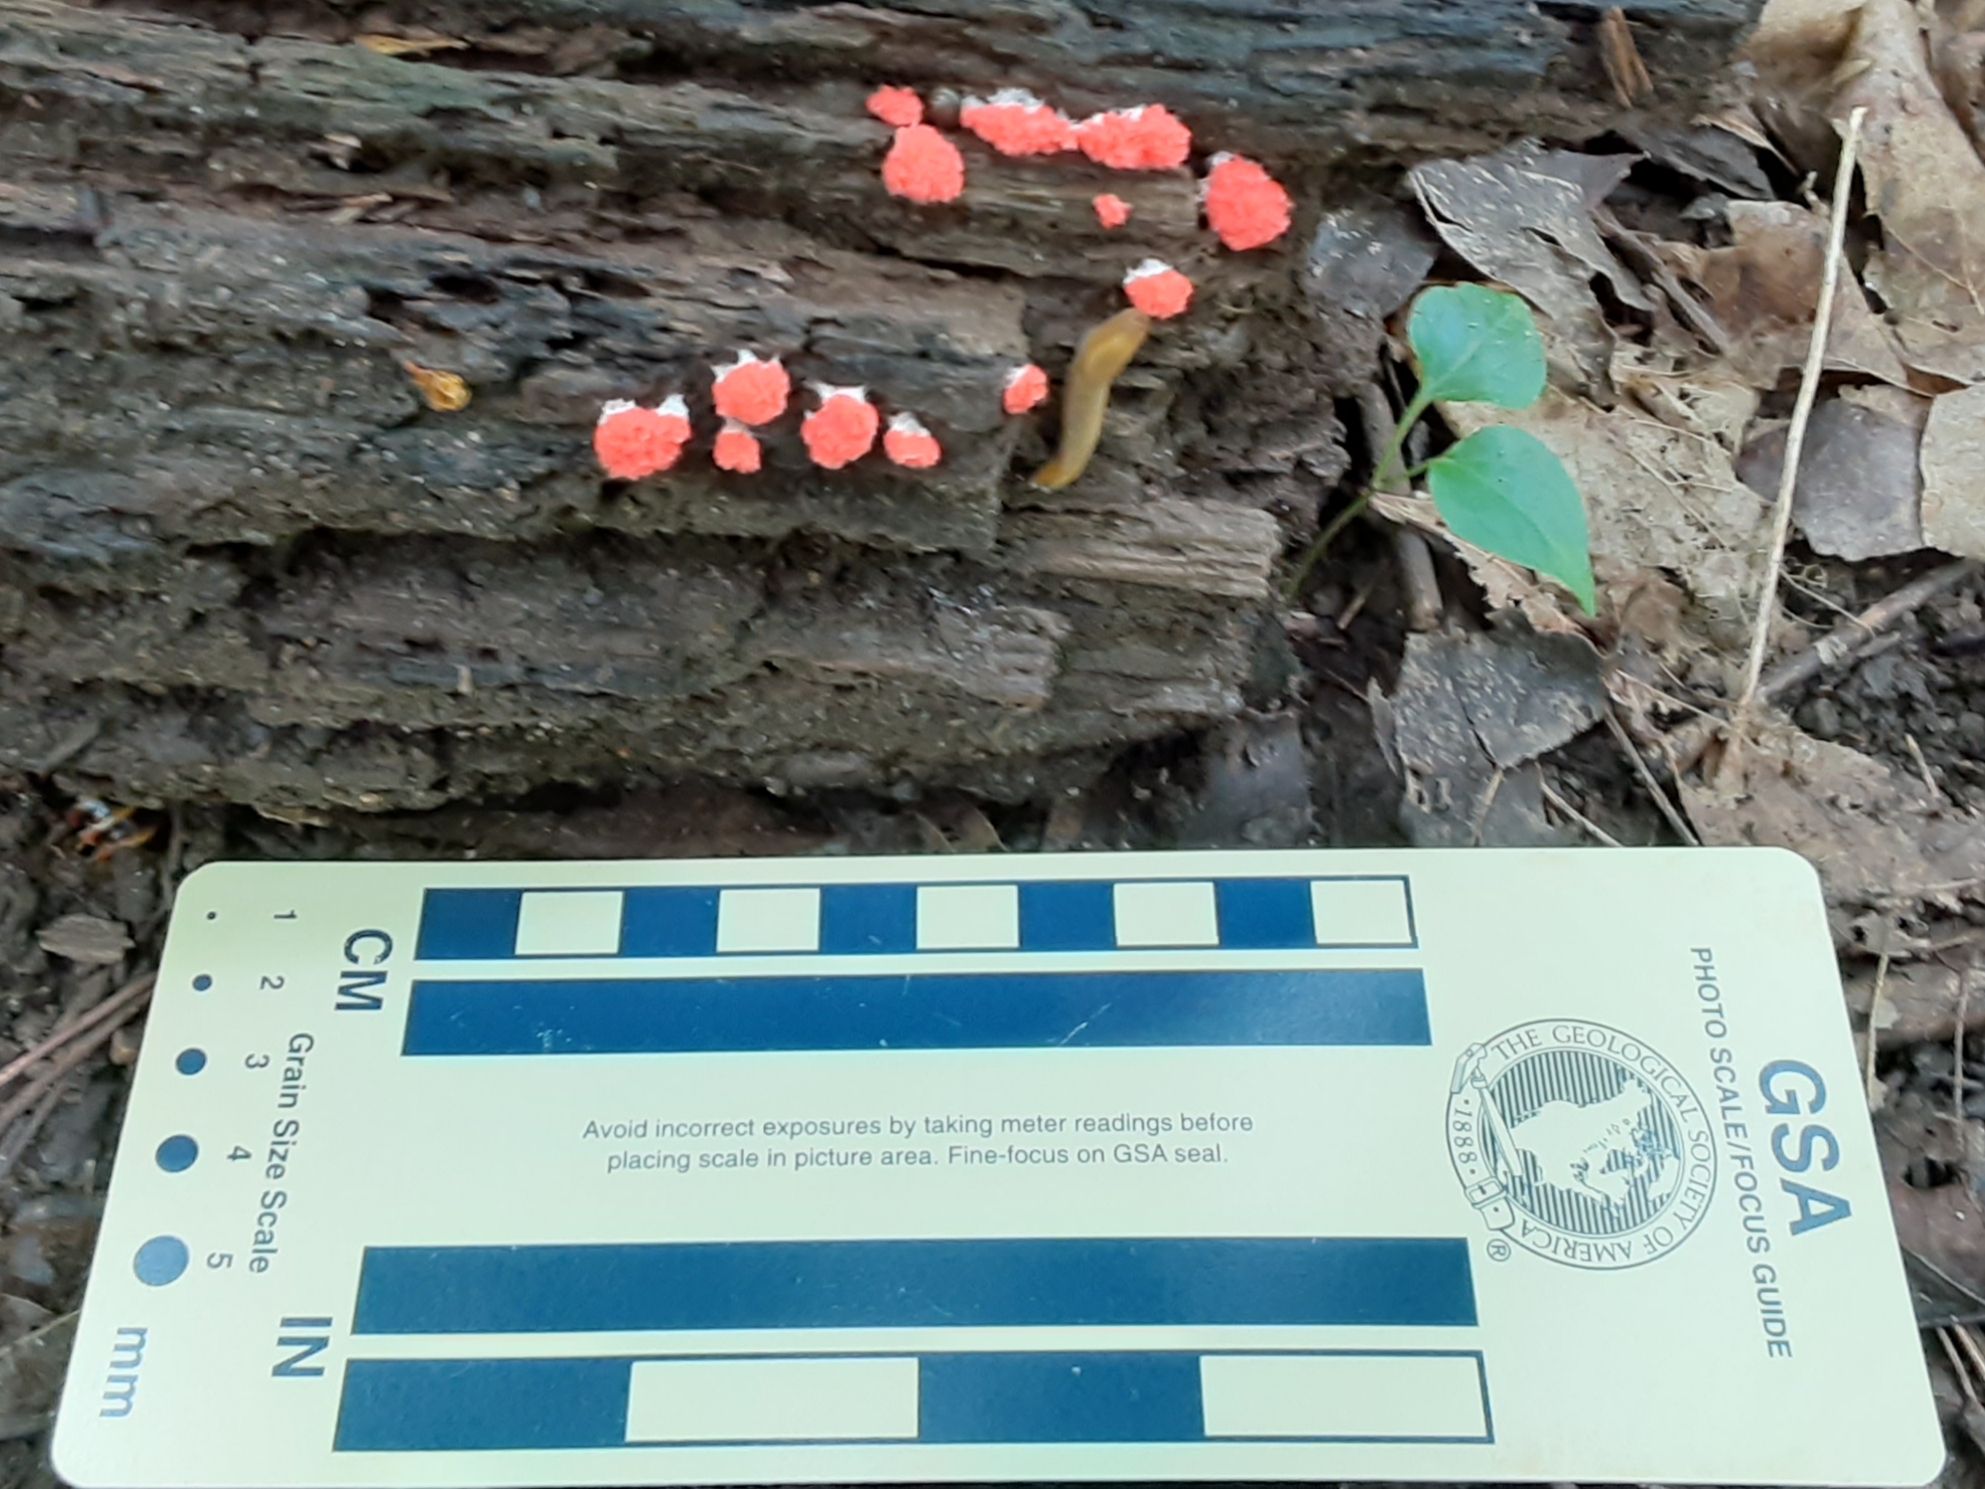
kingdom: Protozoa
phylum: Mycetozoa
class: Myxomycetes
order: Cribrariales
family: Tubiferaceae
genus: Tubifera
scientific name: Tubifera ferruginosa
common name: Red raspberry slime mold
